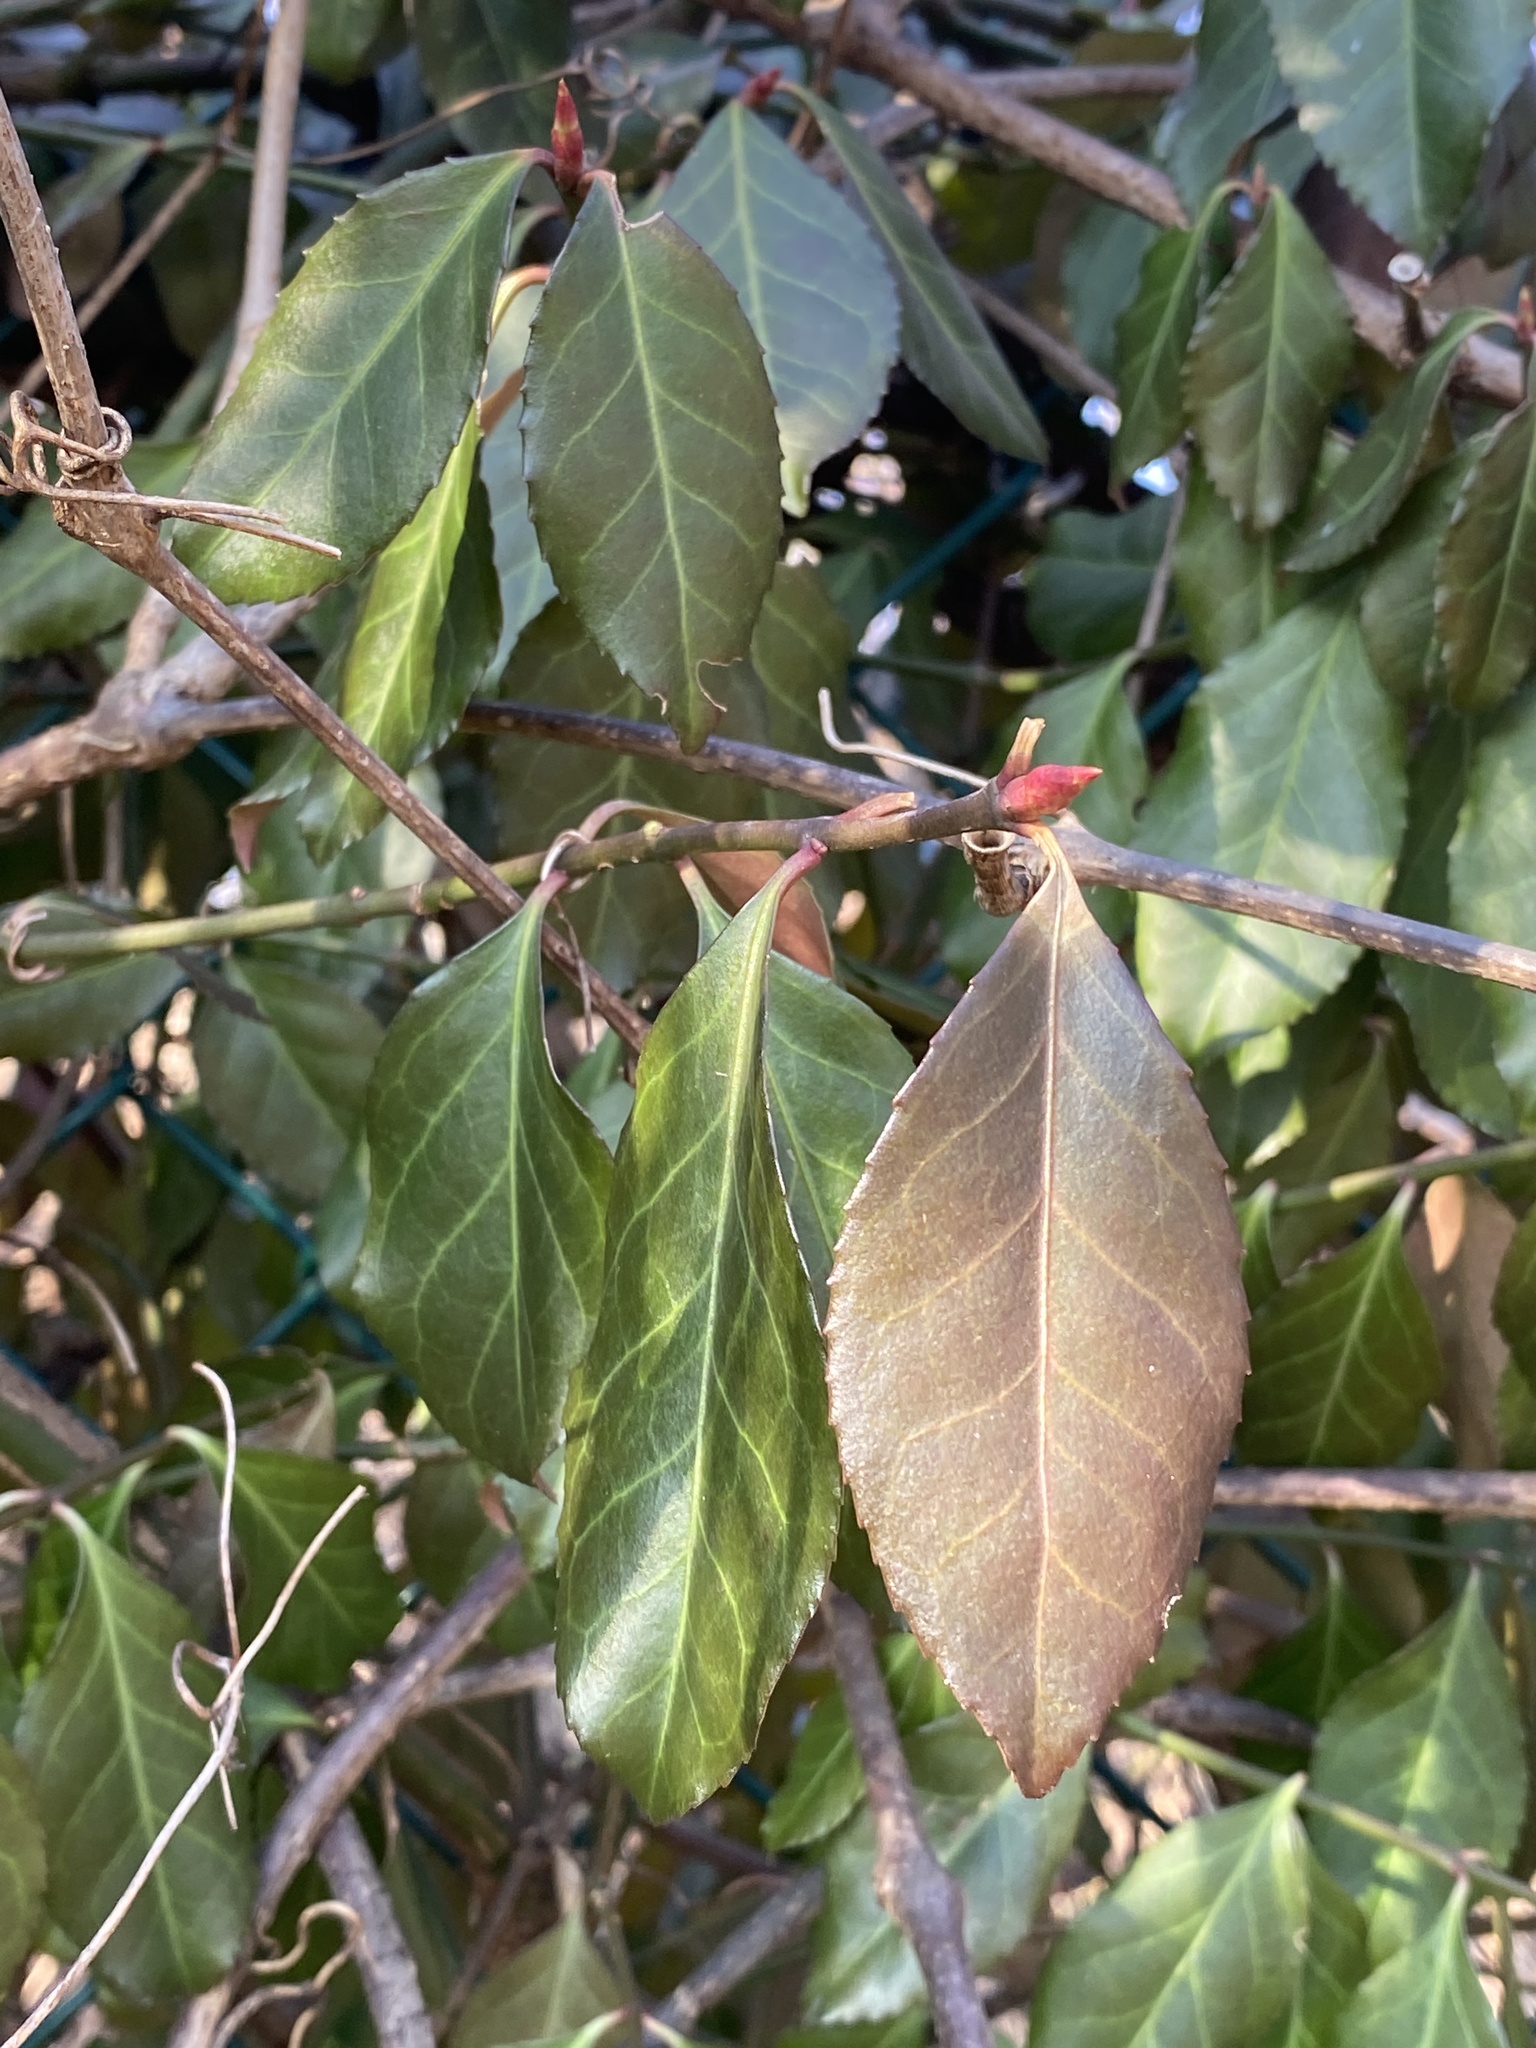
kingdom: Plantae
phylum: Tracheophyta
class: Magnoliopsida
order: Celastrales
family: Celastraceae
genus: Euonymus
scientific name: Euonymus fortunei
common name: Climbing euonymus
